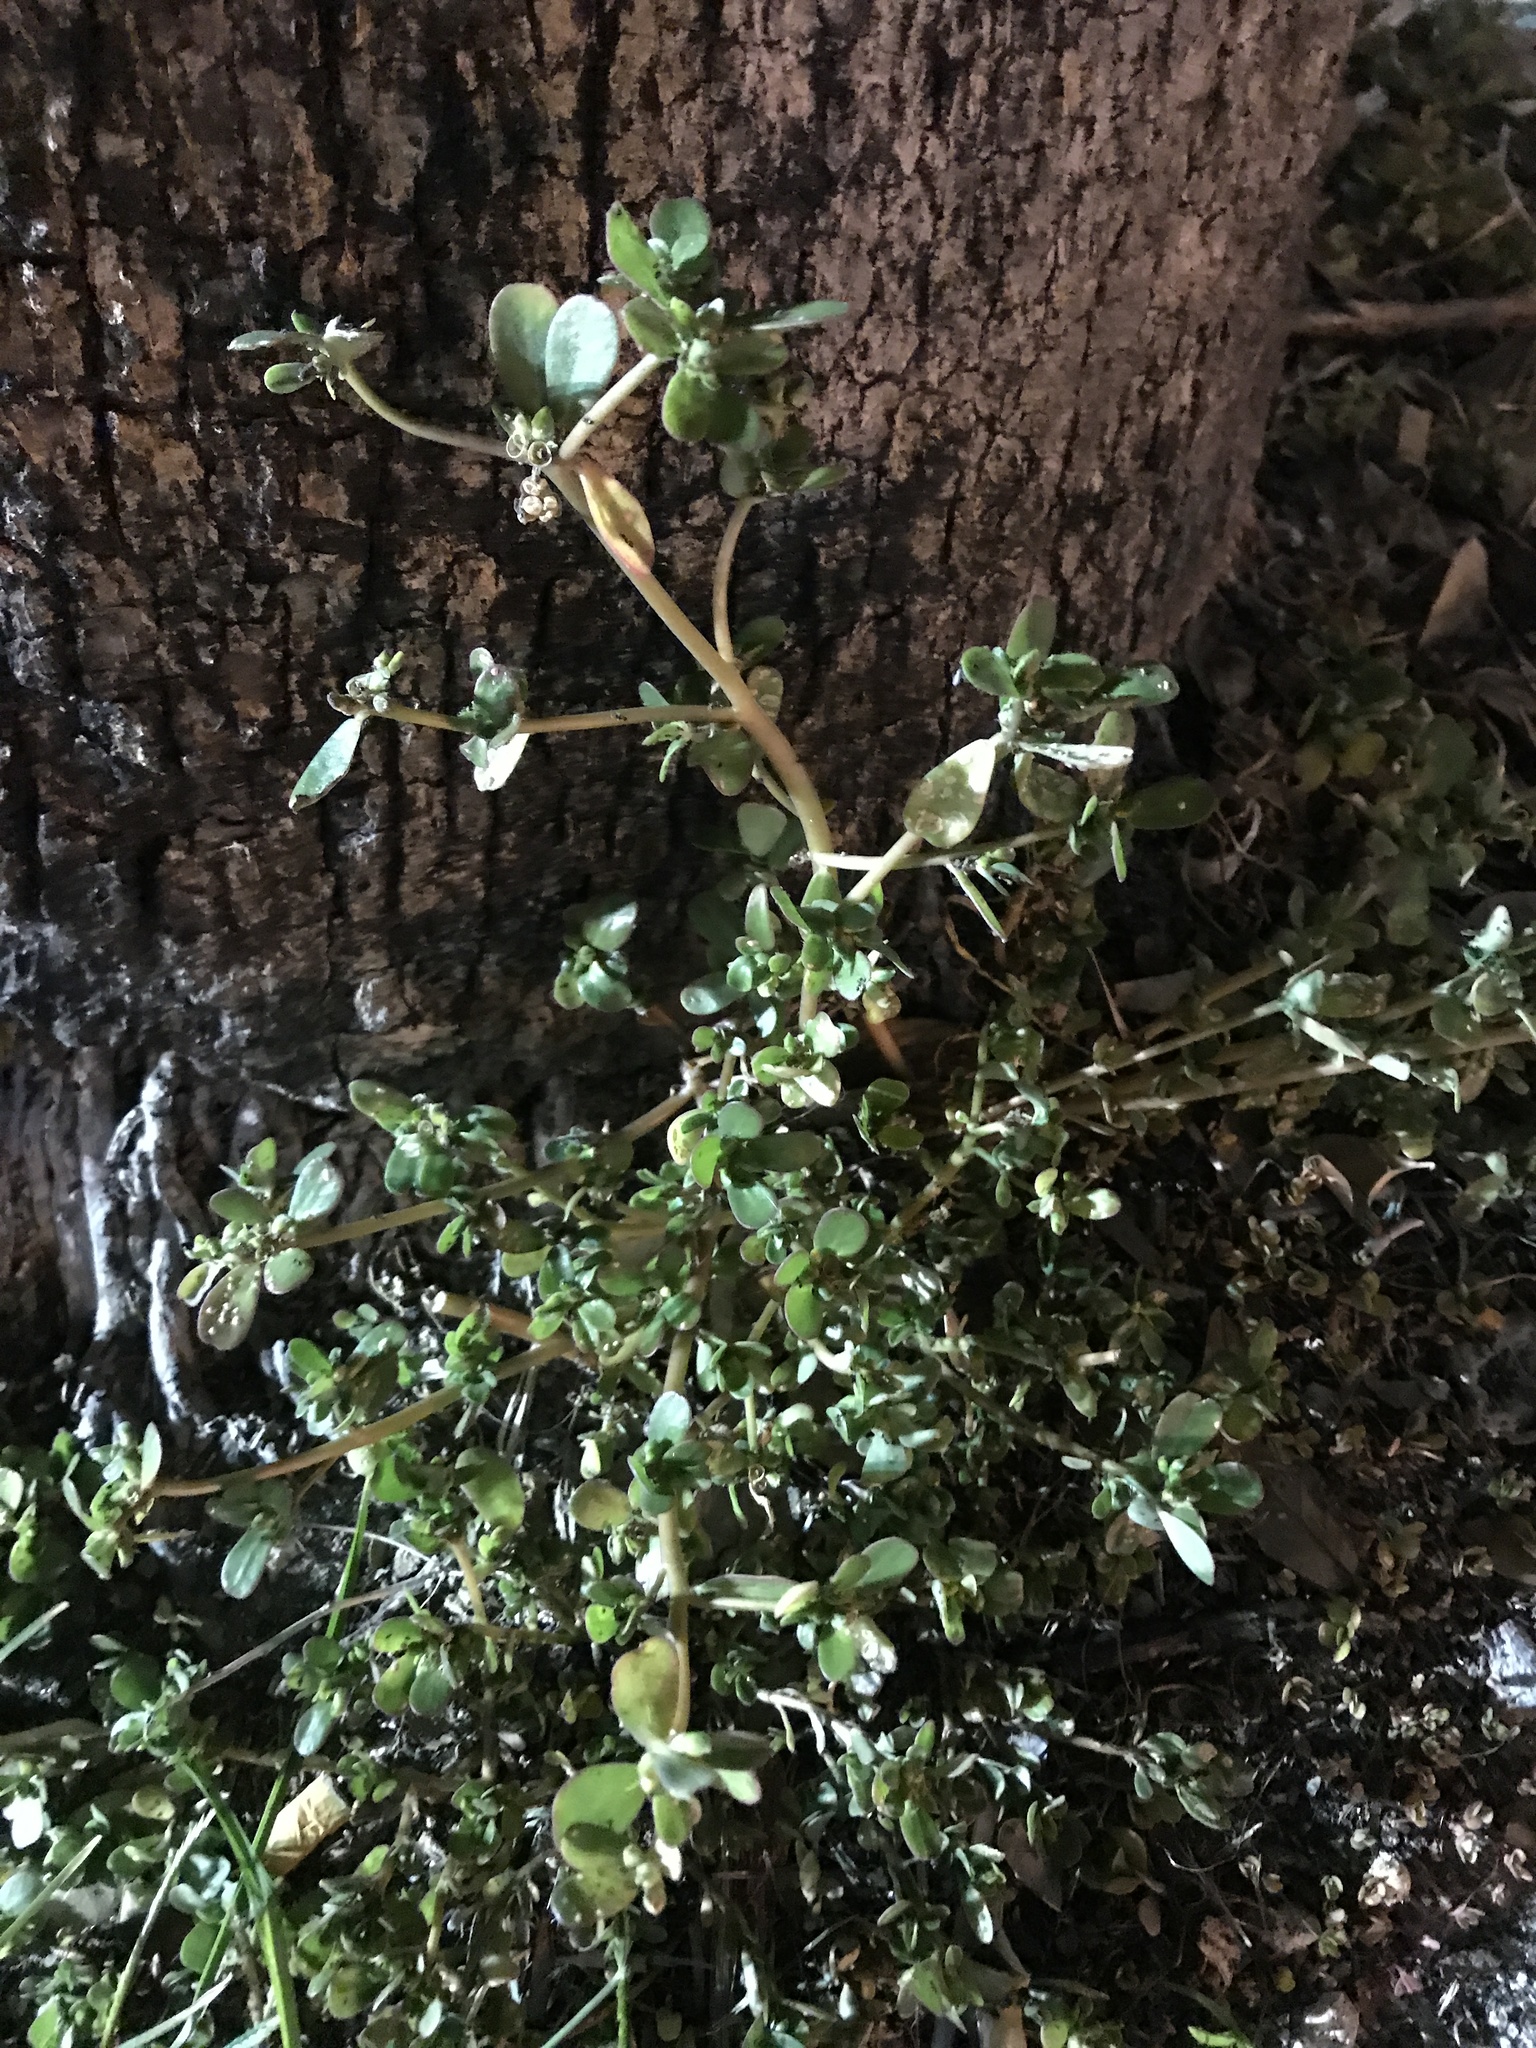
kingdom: Plantae
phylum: Tracheophyta
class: Magnoliopsida
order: Caryophyllales
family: Portulacaceae
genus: Portulaca
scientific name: Portulaca oleracea
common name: Common purslane
